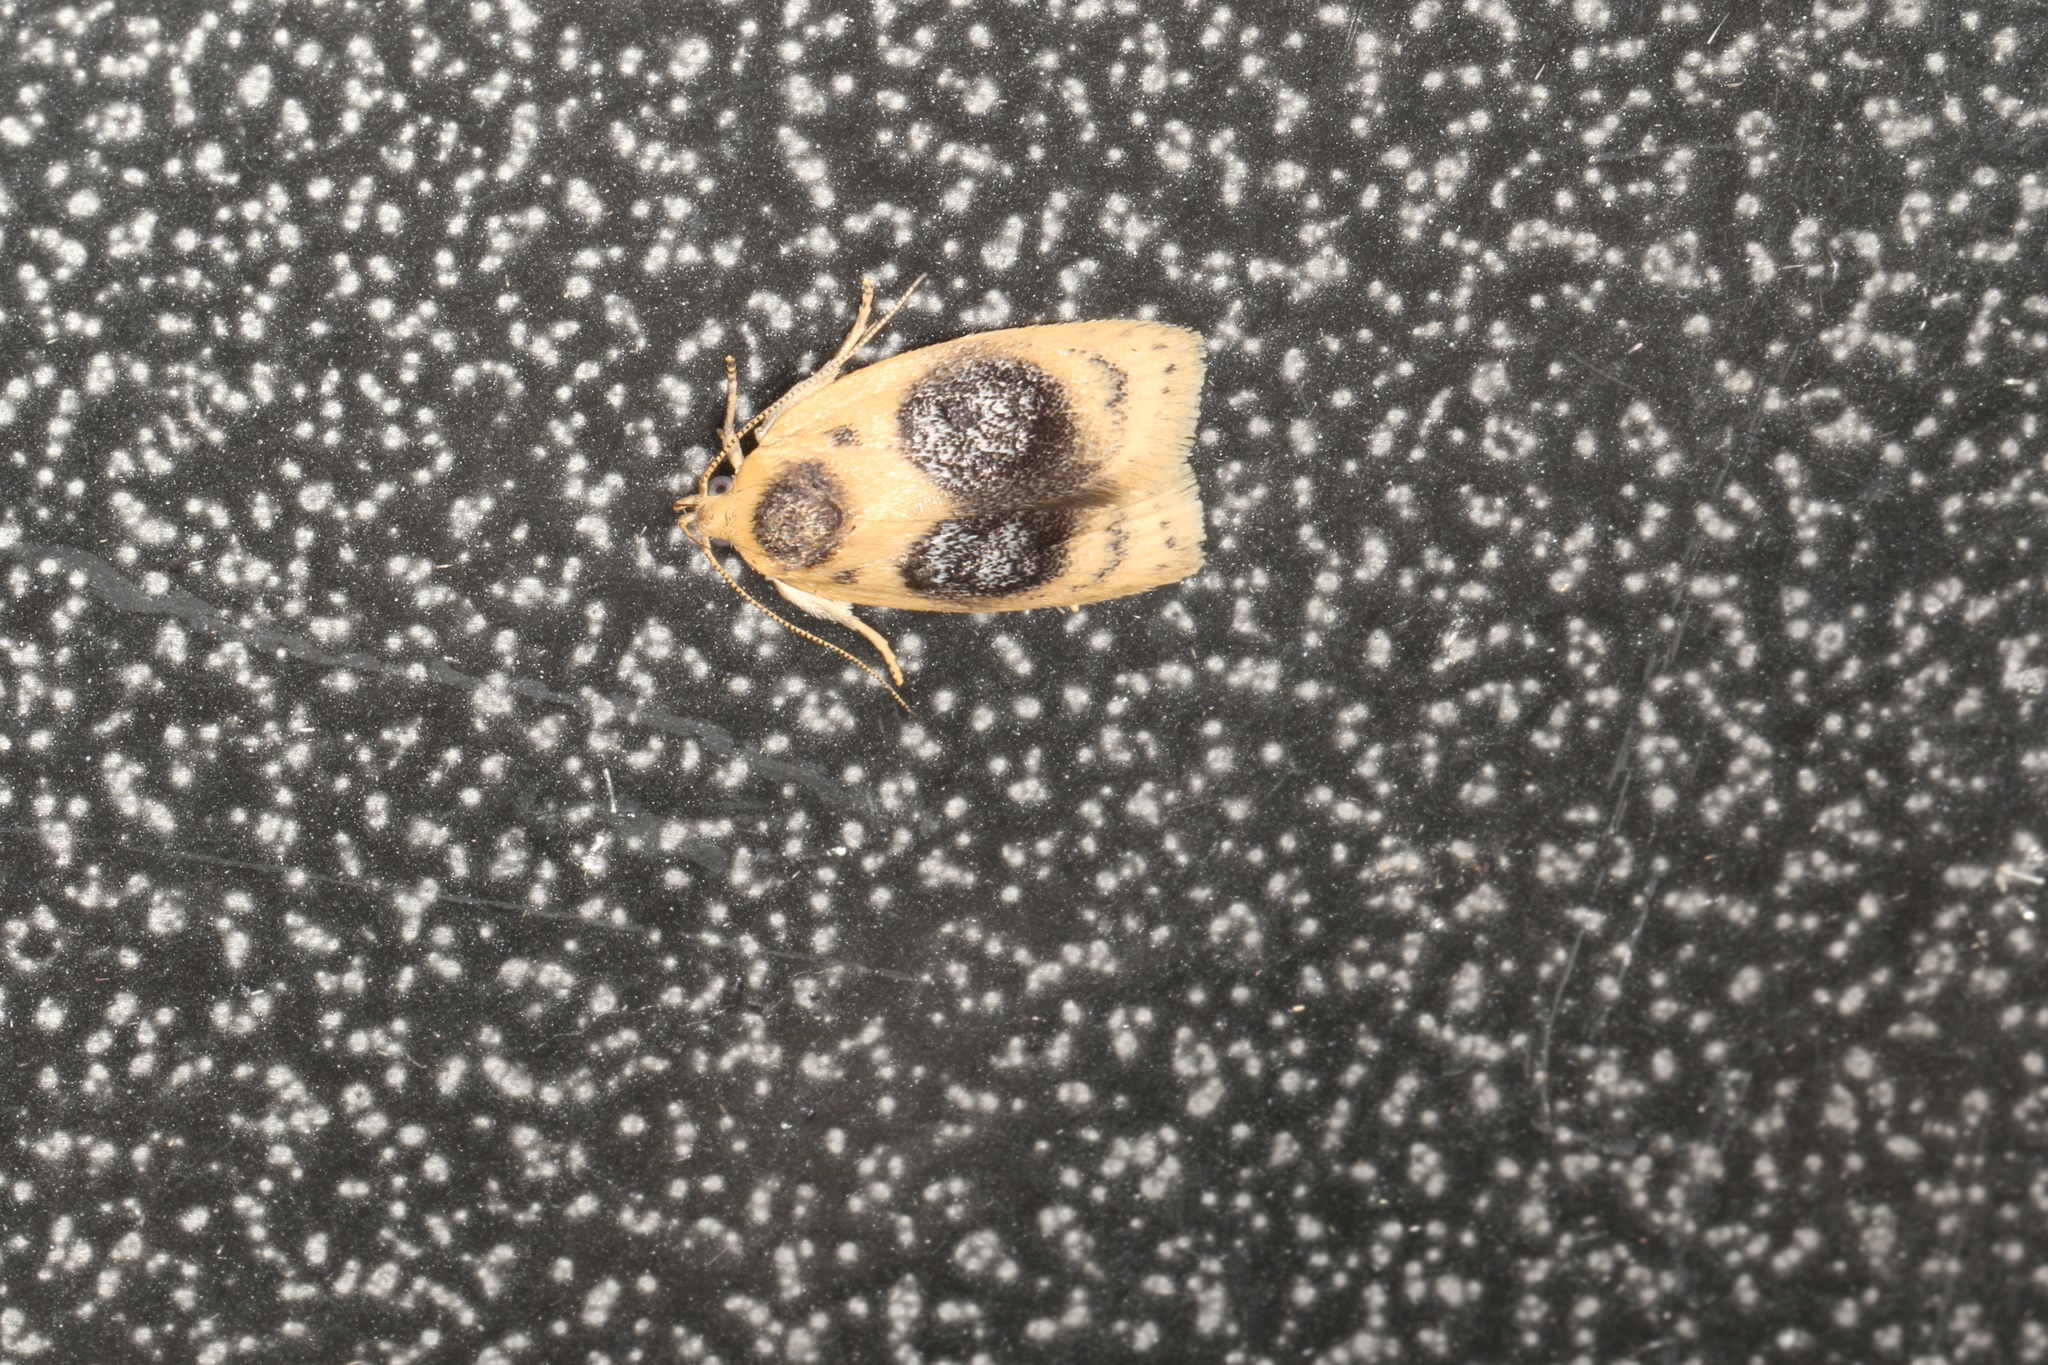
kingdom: Animalia
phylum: Arthropoda
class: Insecta
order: Lepidoptera
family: Oecophoridae
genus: Garrha
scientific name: Garrha ocellifera
